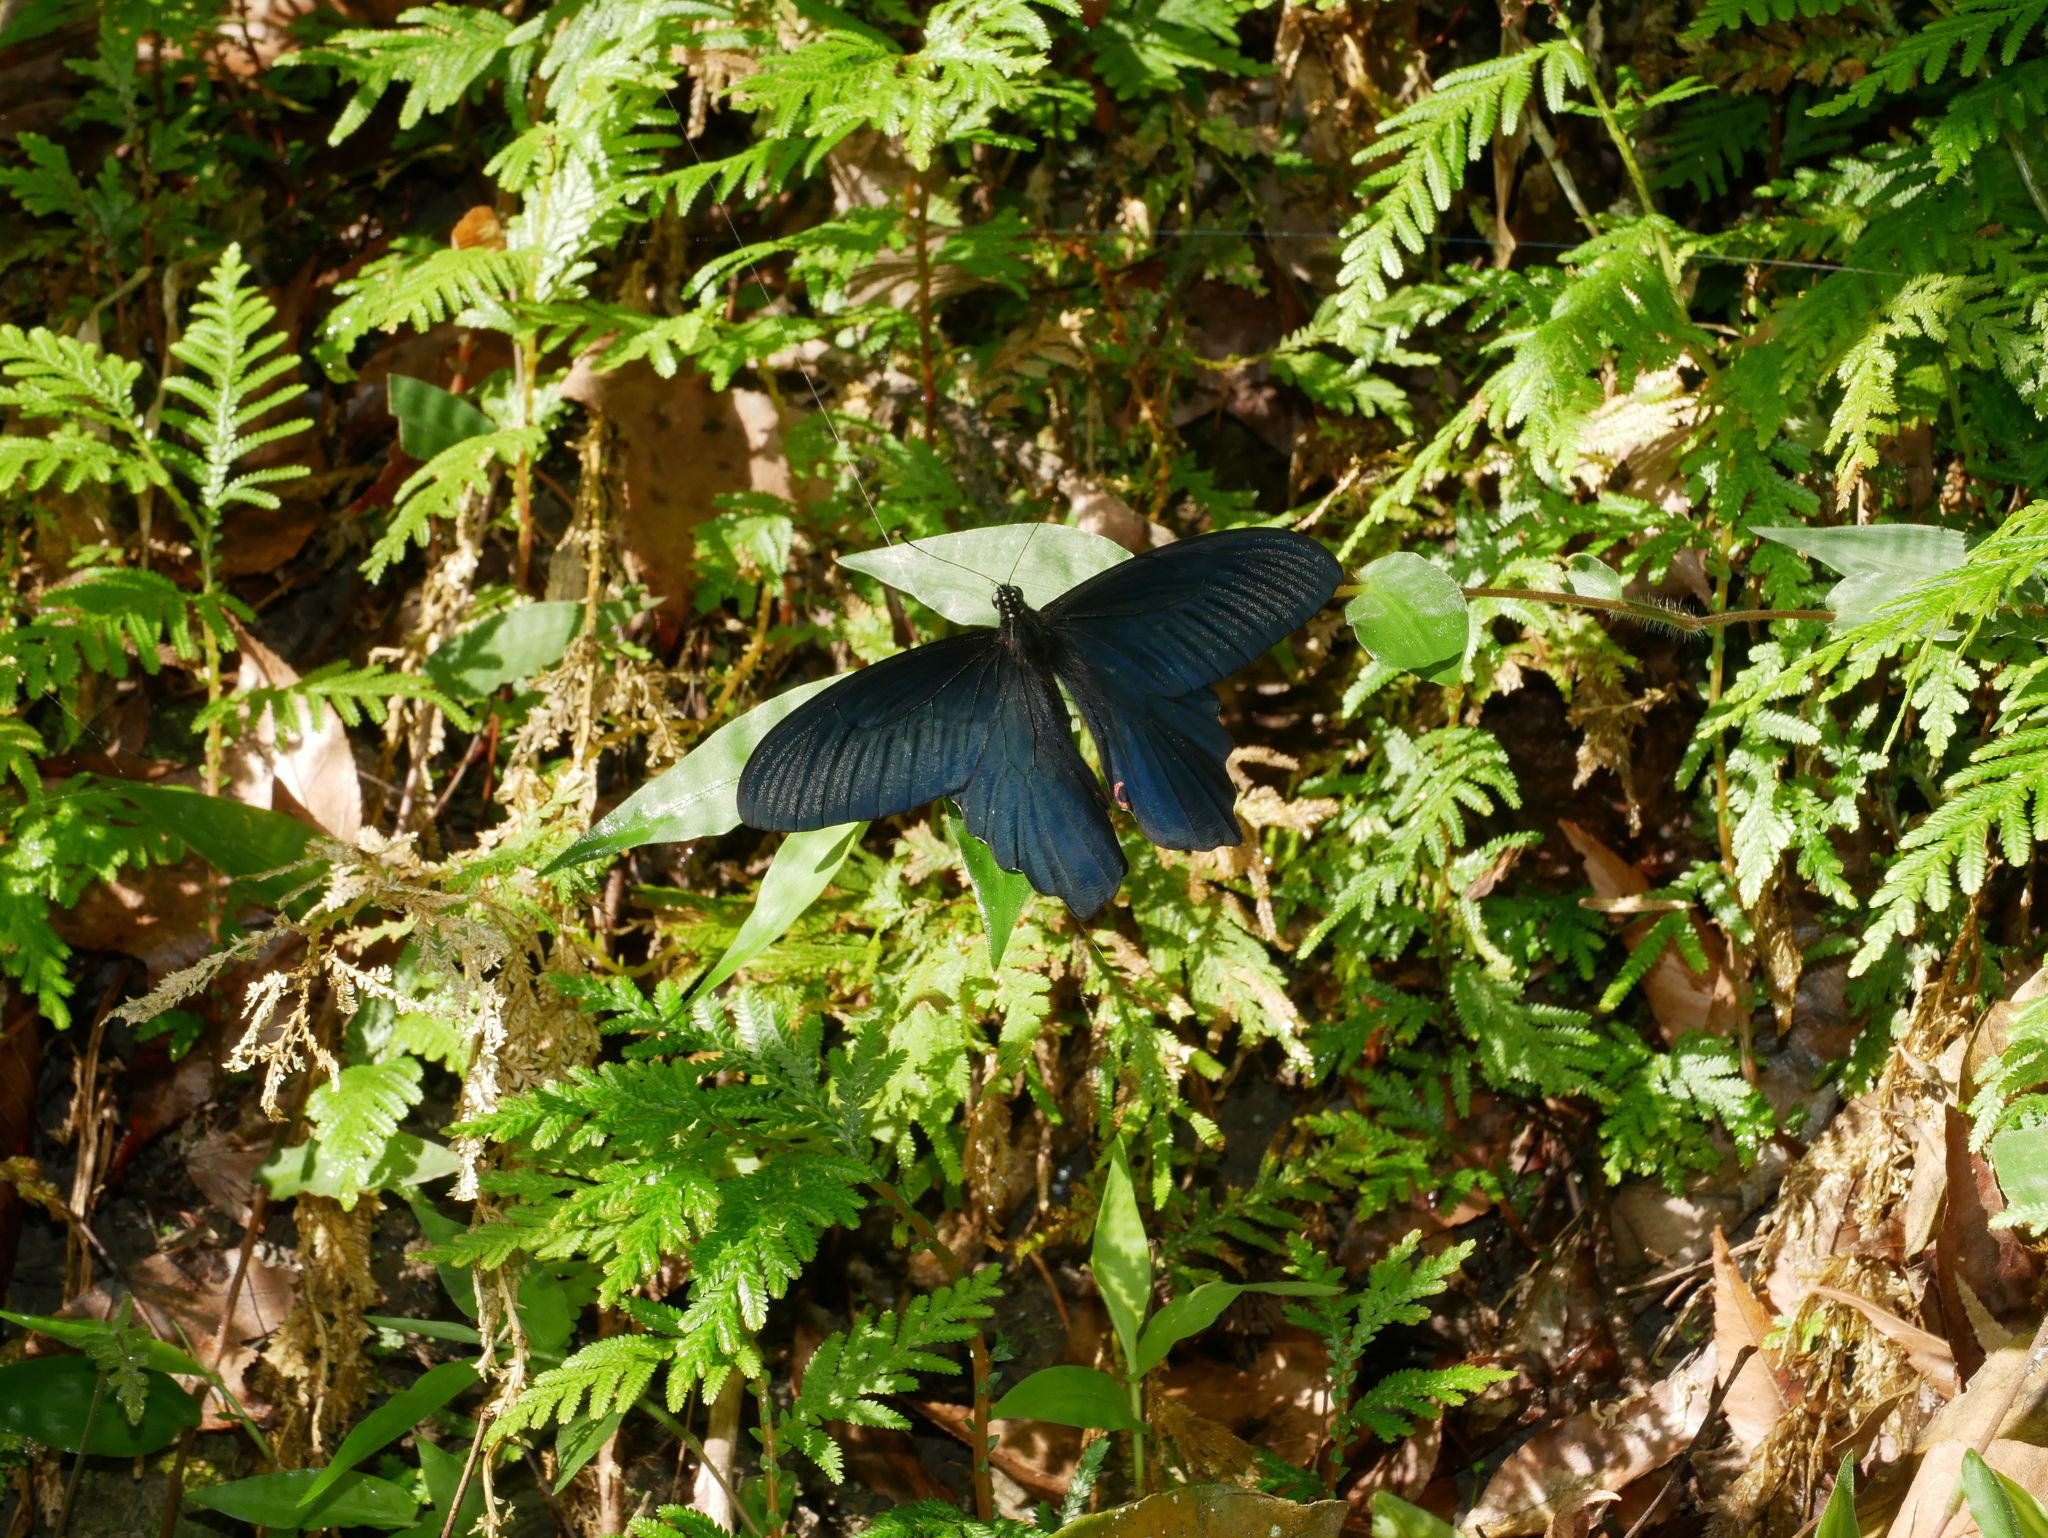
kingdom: Animalia
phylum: Arthropoda
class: Insecta
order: Lepidoptera
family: Papilionidae
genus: Papilio
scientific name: Papilio protenor
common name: Spangle
